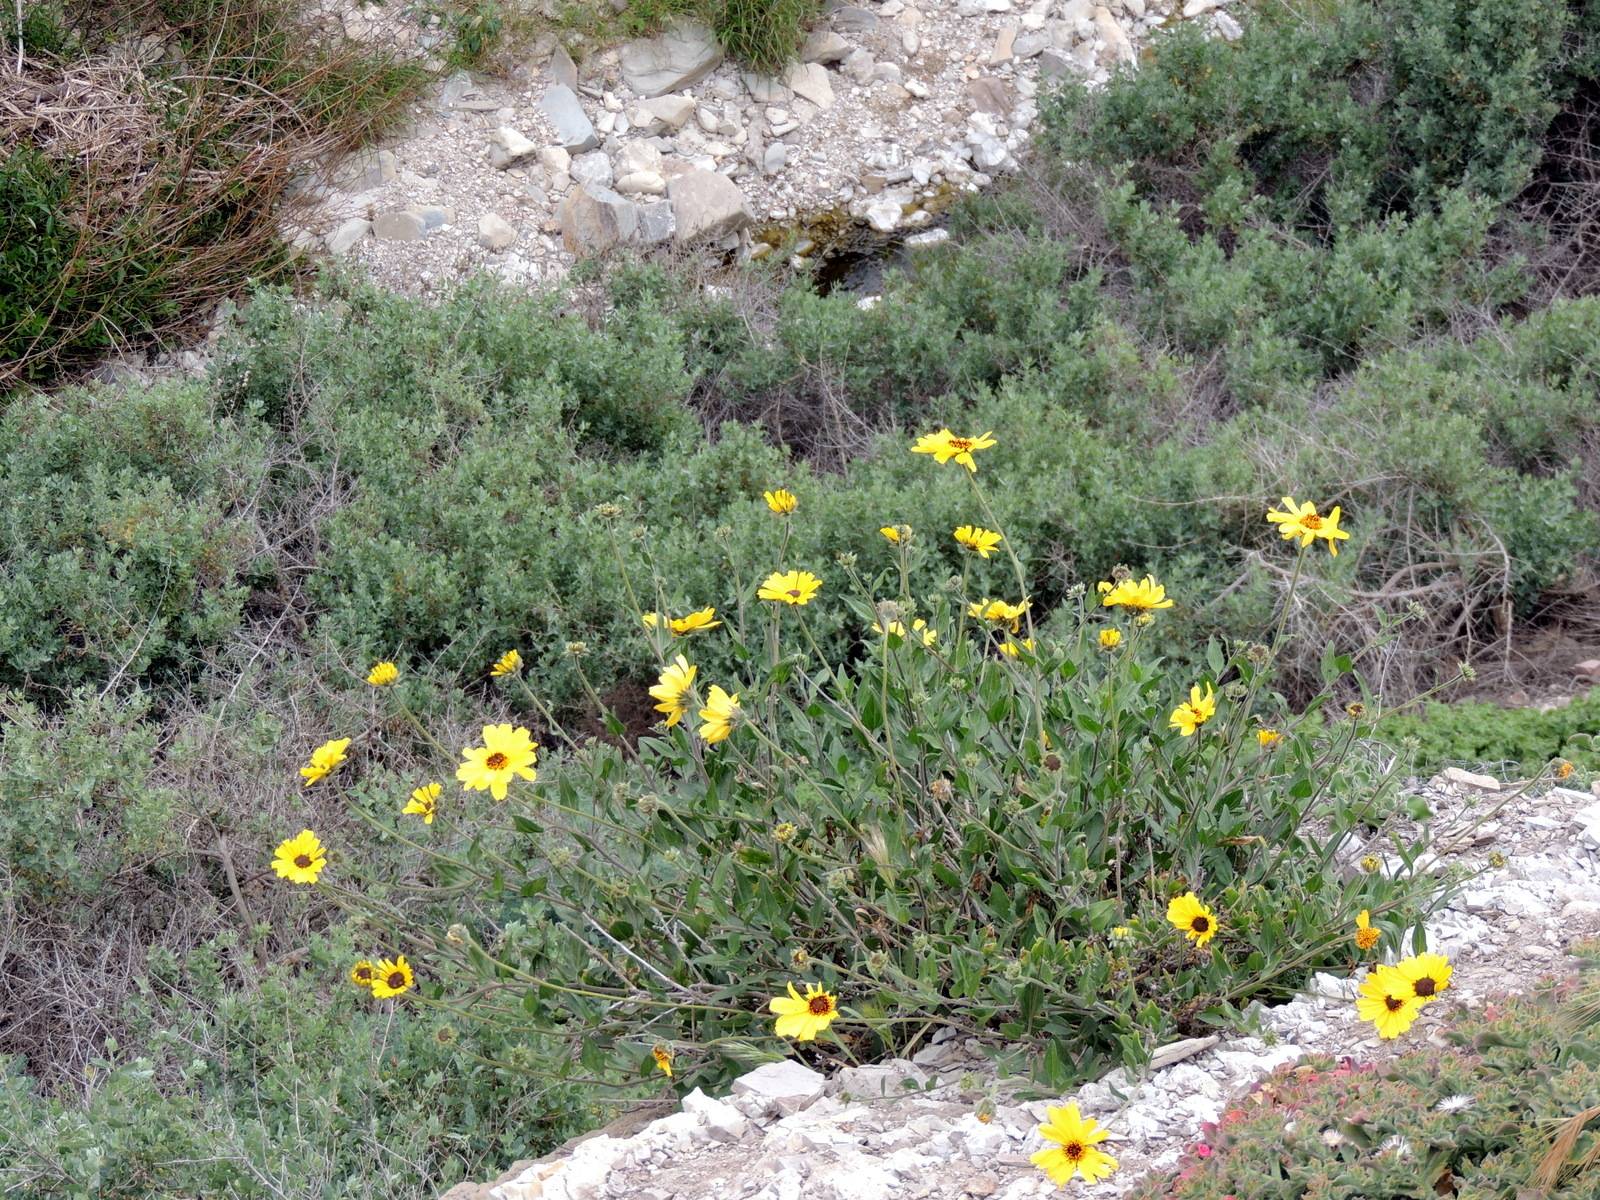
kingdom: Plantae
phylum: Tracheophyta
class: Magnoliopsida
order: Asterales
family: Asteraceae
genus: Encelia
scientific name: Encelia californica
